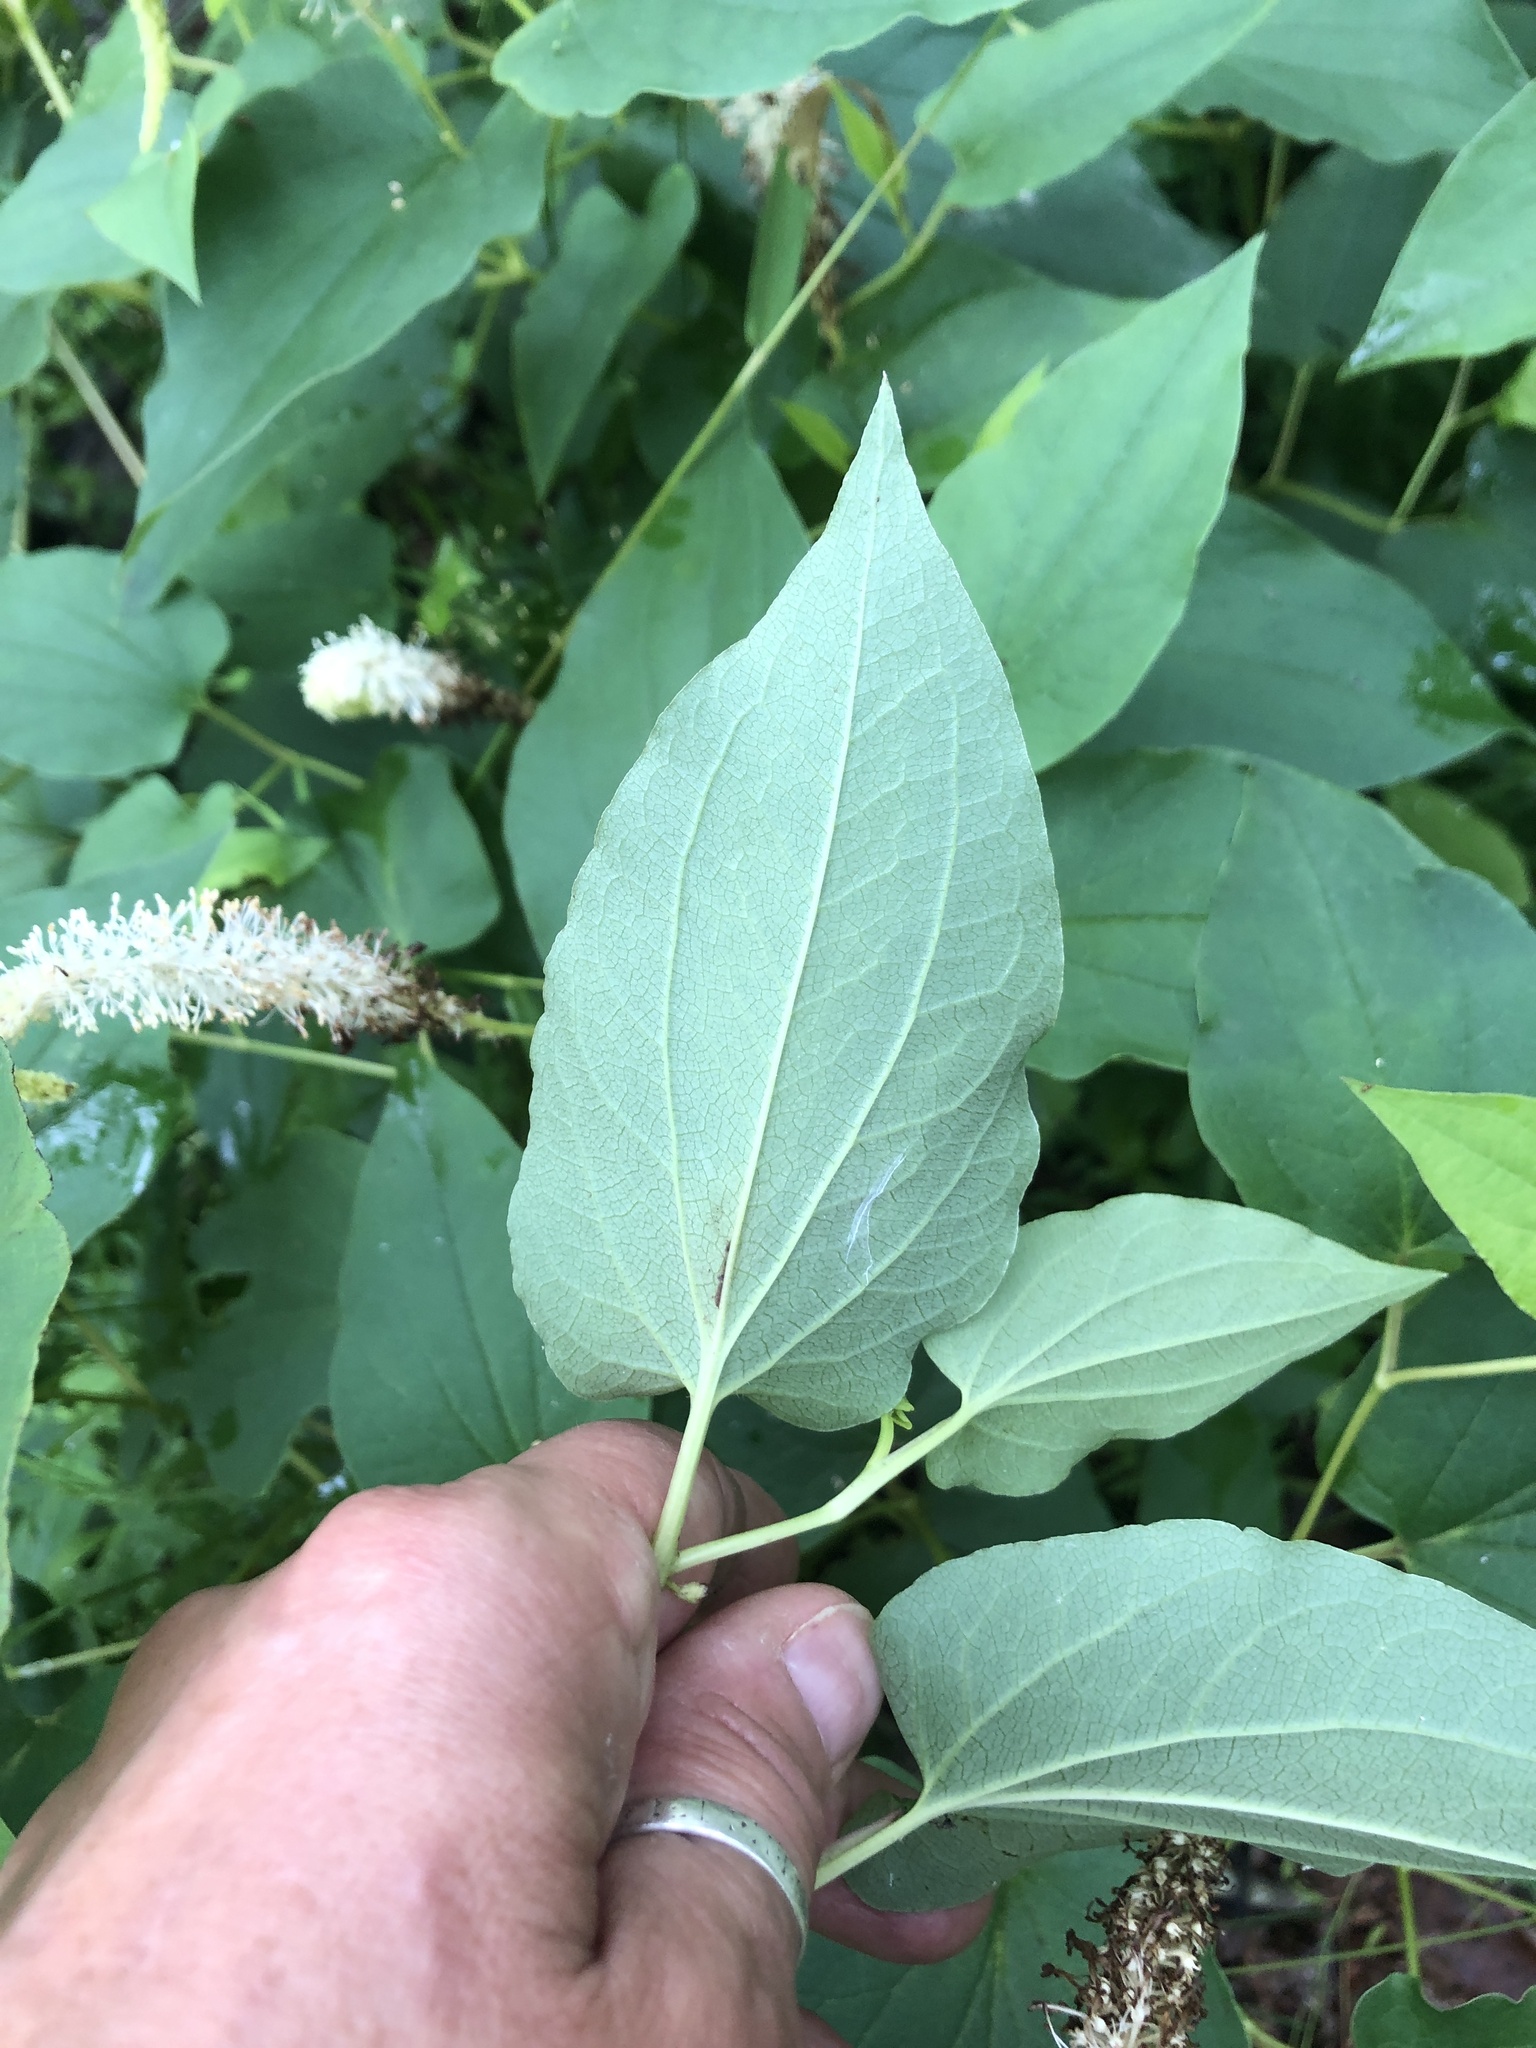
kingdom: Plantae
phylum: Tracheophyta
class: Magnoliopsida
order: Piperales
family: Saururaceae
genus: Saururus
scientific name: Saururus cernuus
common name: Lizard's-tail
